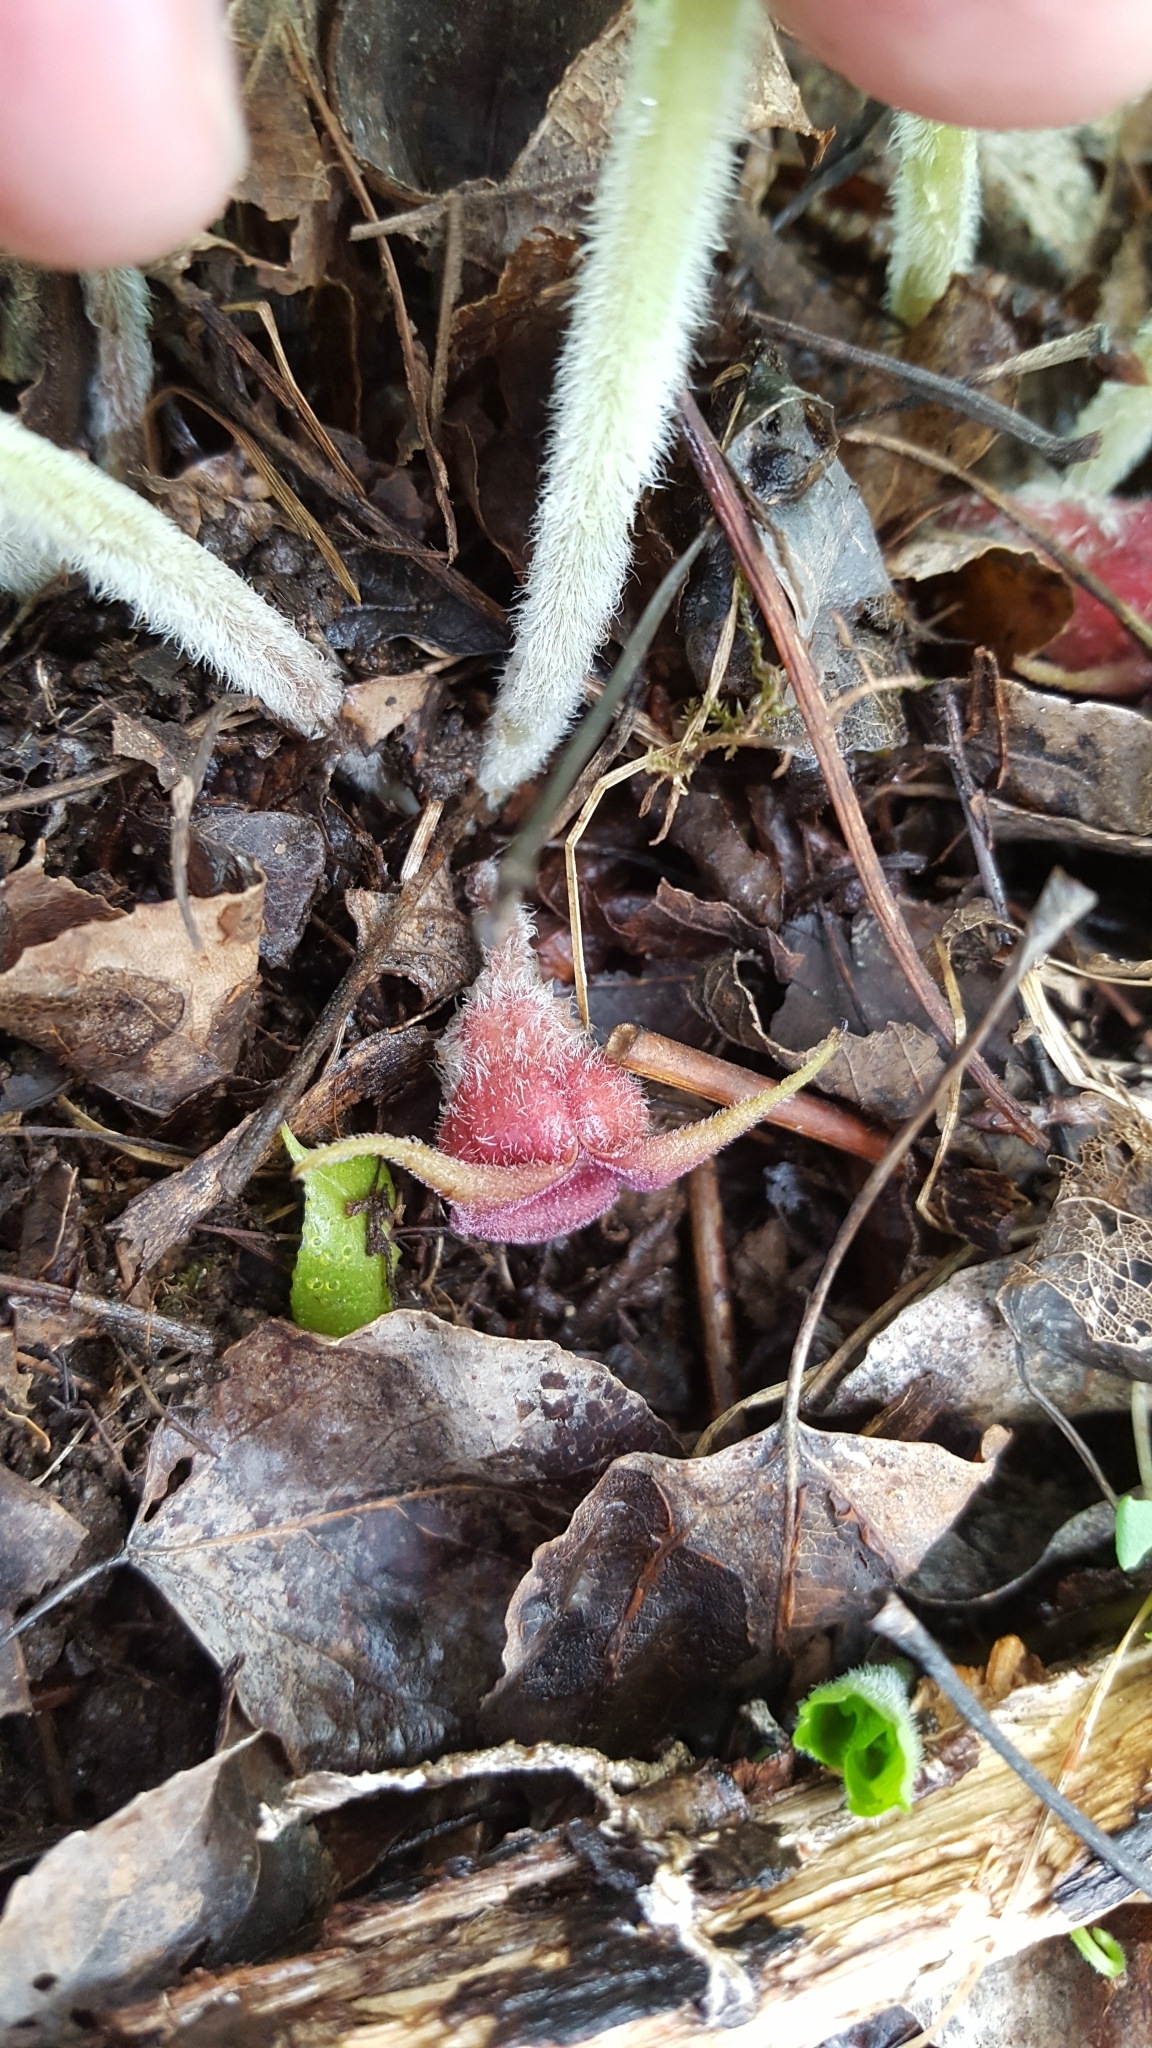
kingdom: Plantae
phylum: Tracheophyta
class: Magnoliopsida
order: Piperales
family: Aristolochiaceae
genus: Asarum
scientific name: Asarum canadense
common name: Wild ginger
